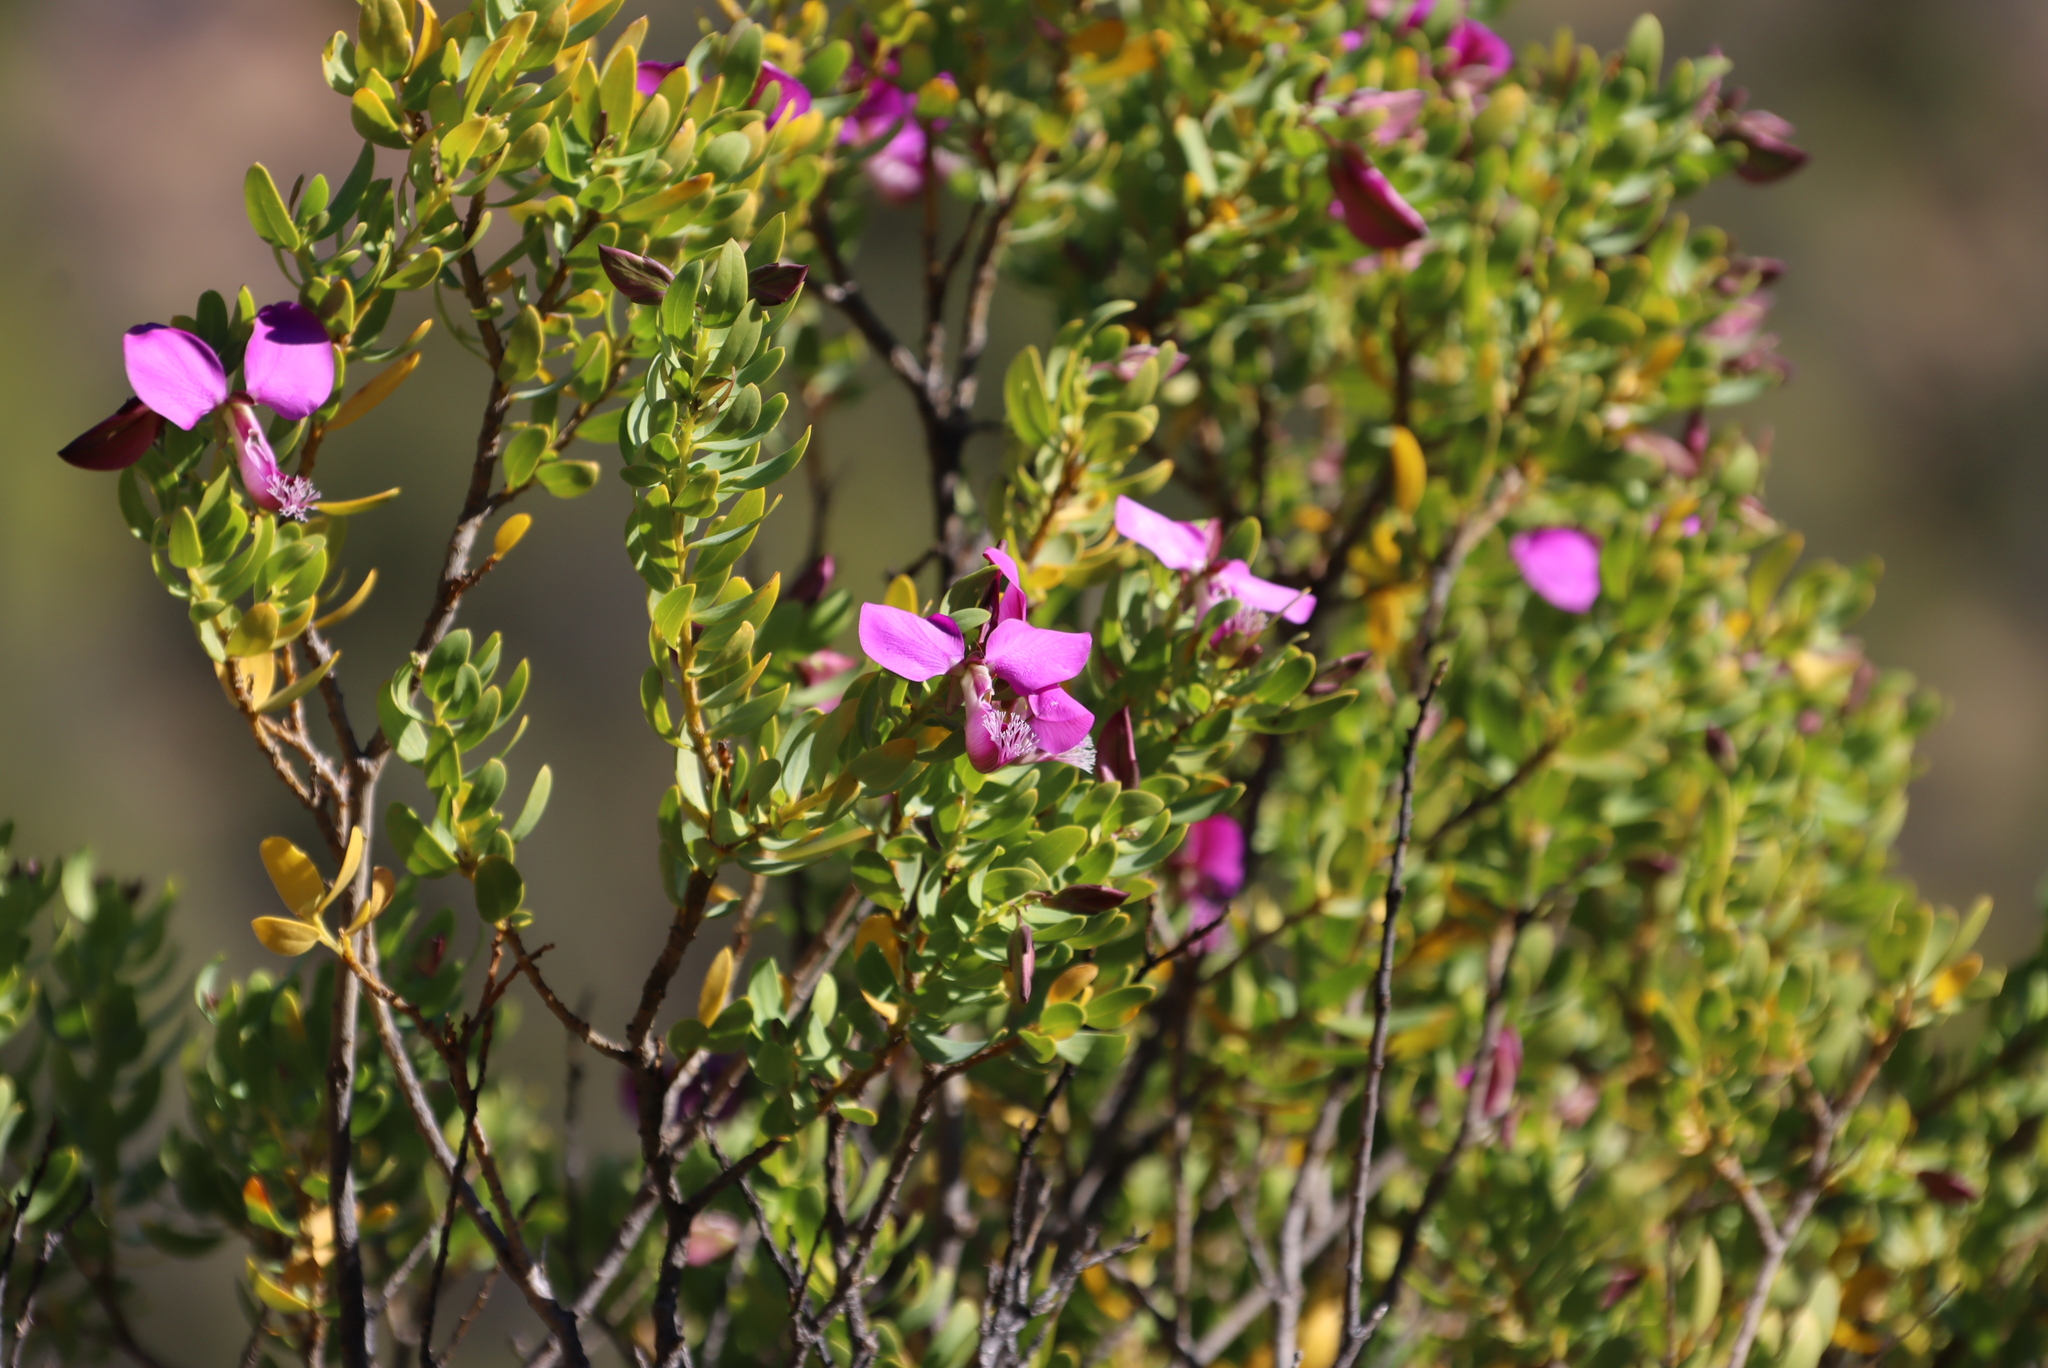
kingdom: Plantae
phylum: Tracheophyta
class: Magnoliopsida
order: Fabales
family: Polygalaceae
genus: Polygala
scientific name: Polygala myrtifolia
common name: Myrtle-leaf milkwort
